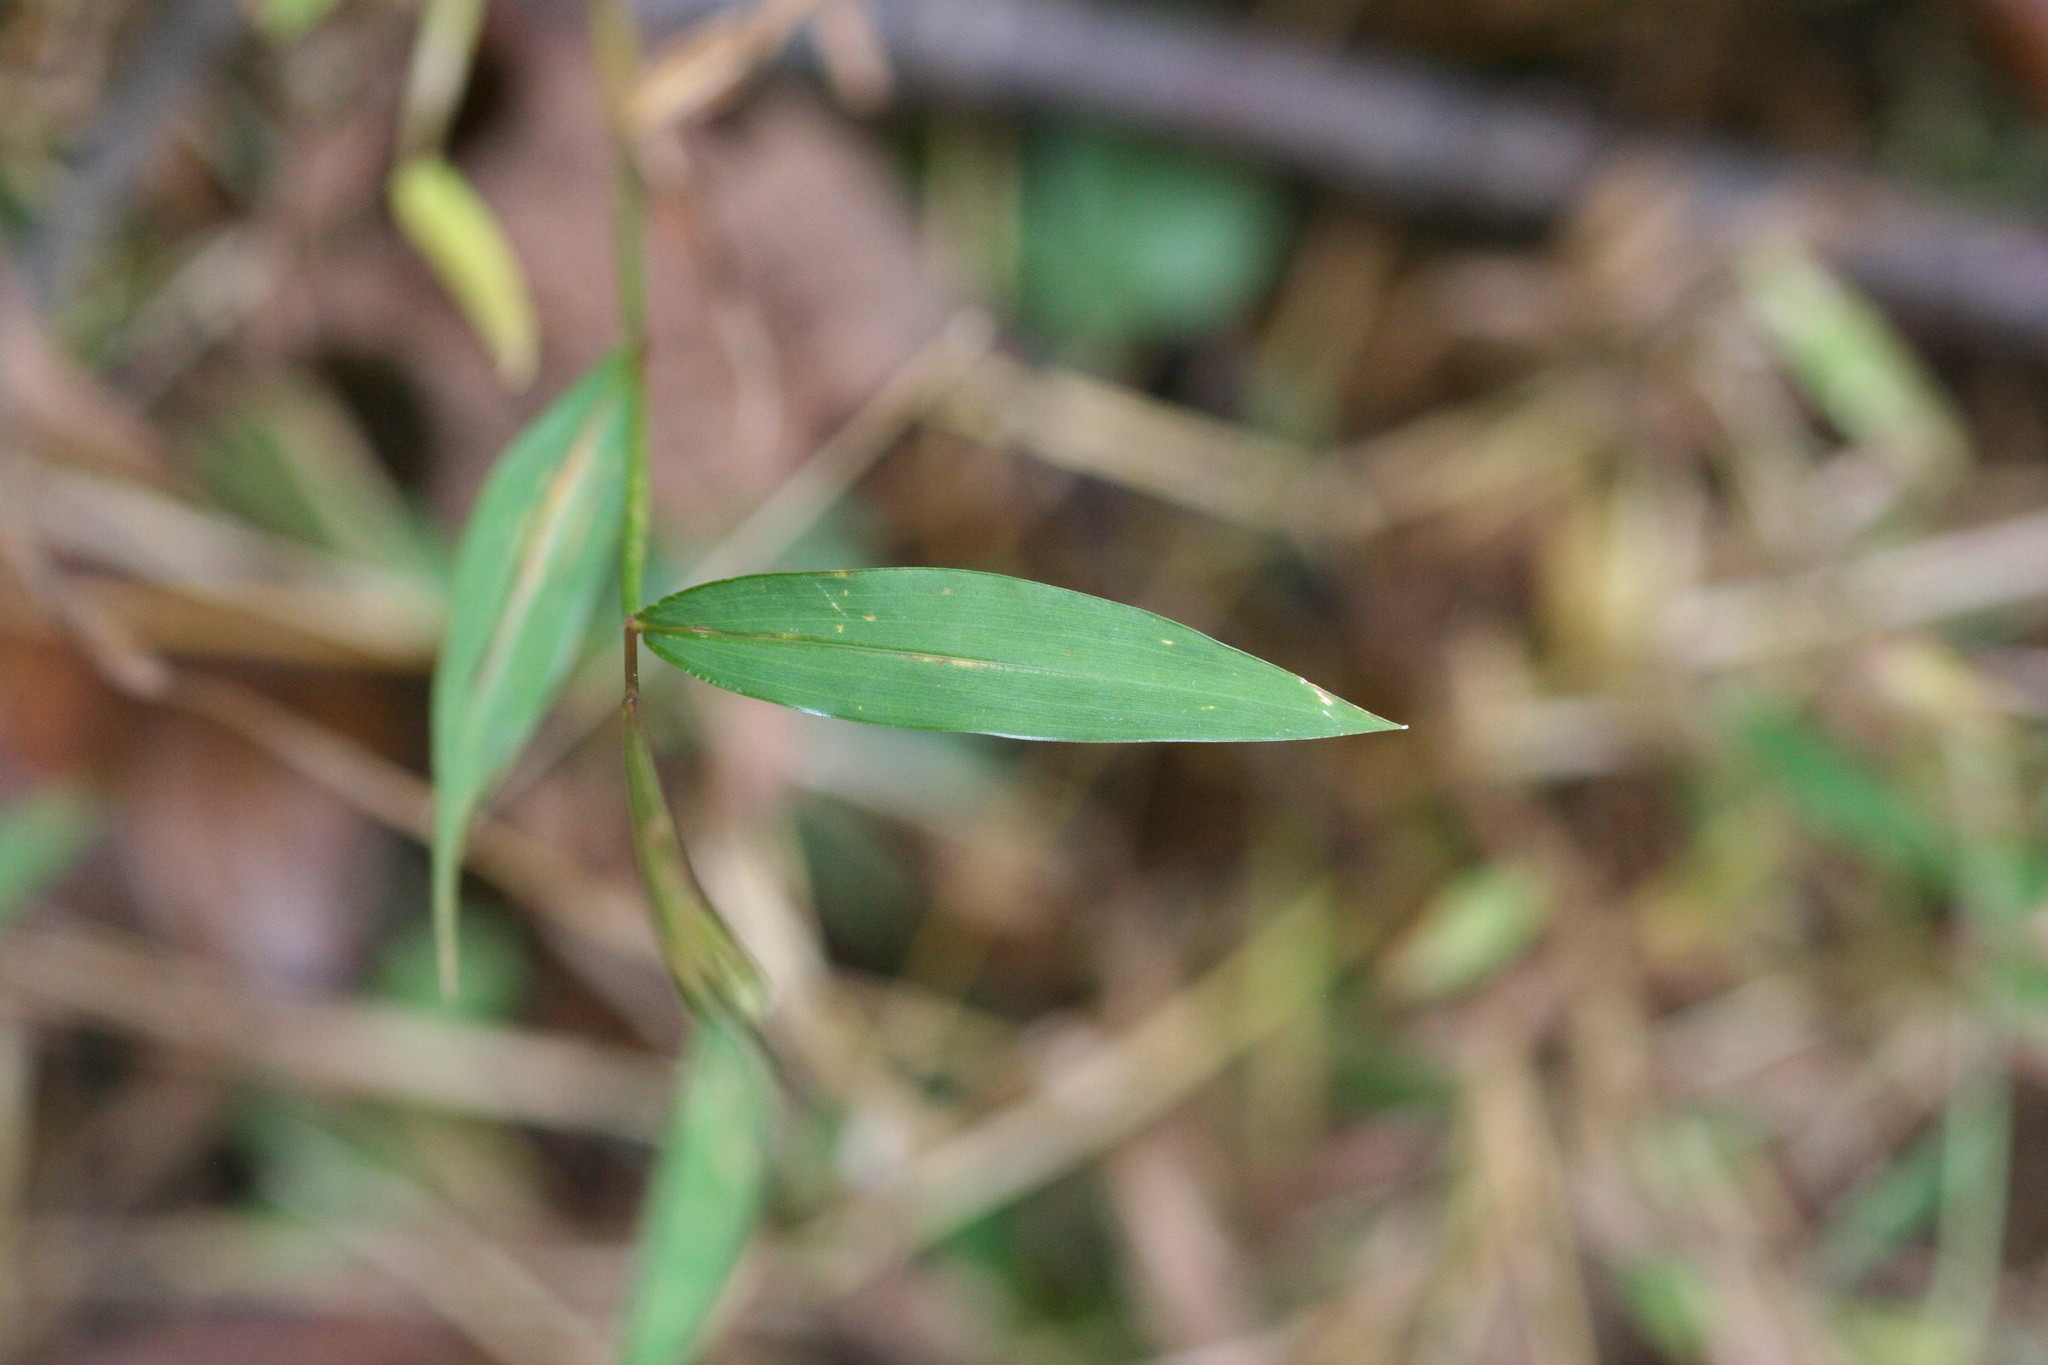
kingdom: Plantae
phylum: Tracheophyta
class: Liliopsida
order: Poales
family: Poaceae
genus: Microstegium
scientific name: Microstegium vimineum
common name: Japanese stiltgrass
